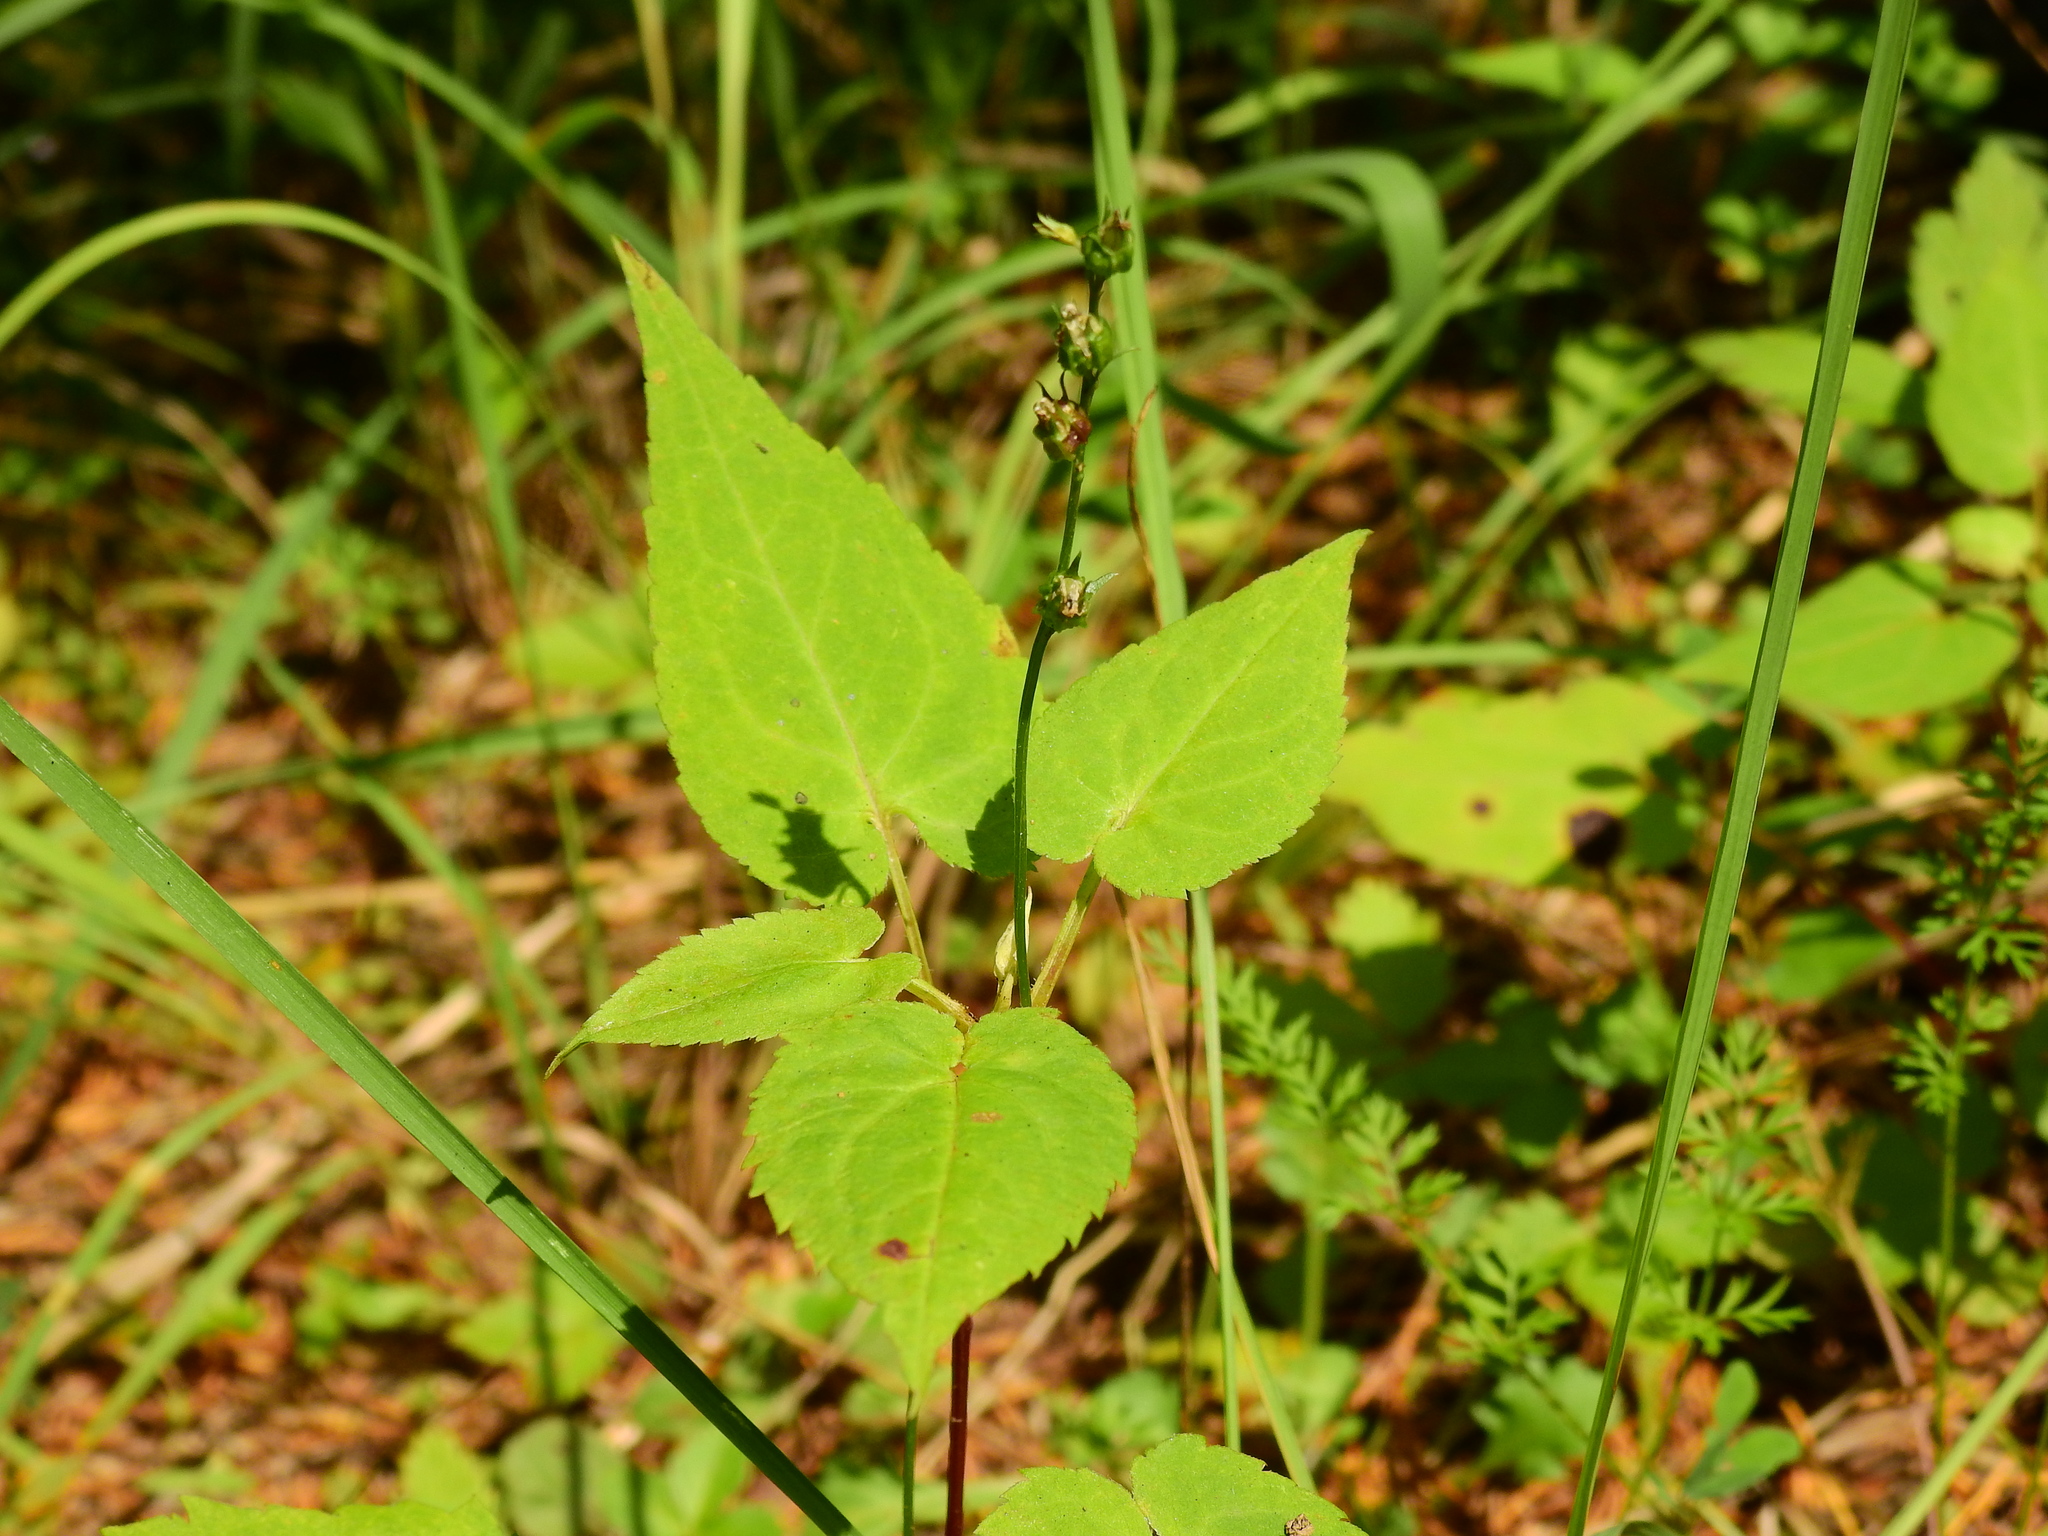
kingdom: Plantae
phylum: Tracheophyta
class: Magnoliopsida
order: Asterales
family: Campanulaceae
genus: Lobelia
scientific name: Lobelia spicata
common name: Pale-spike lobelia
